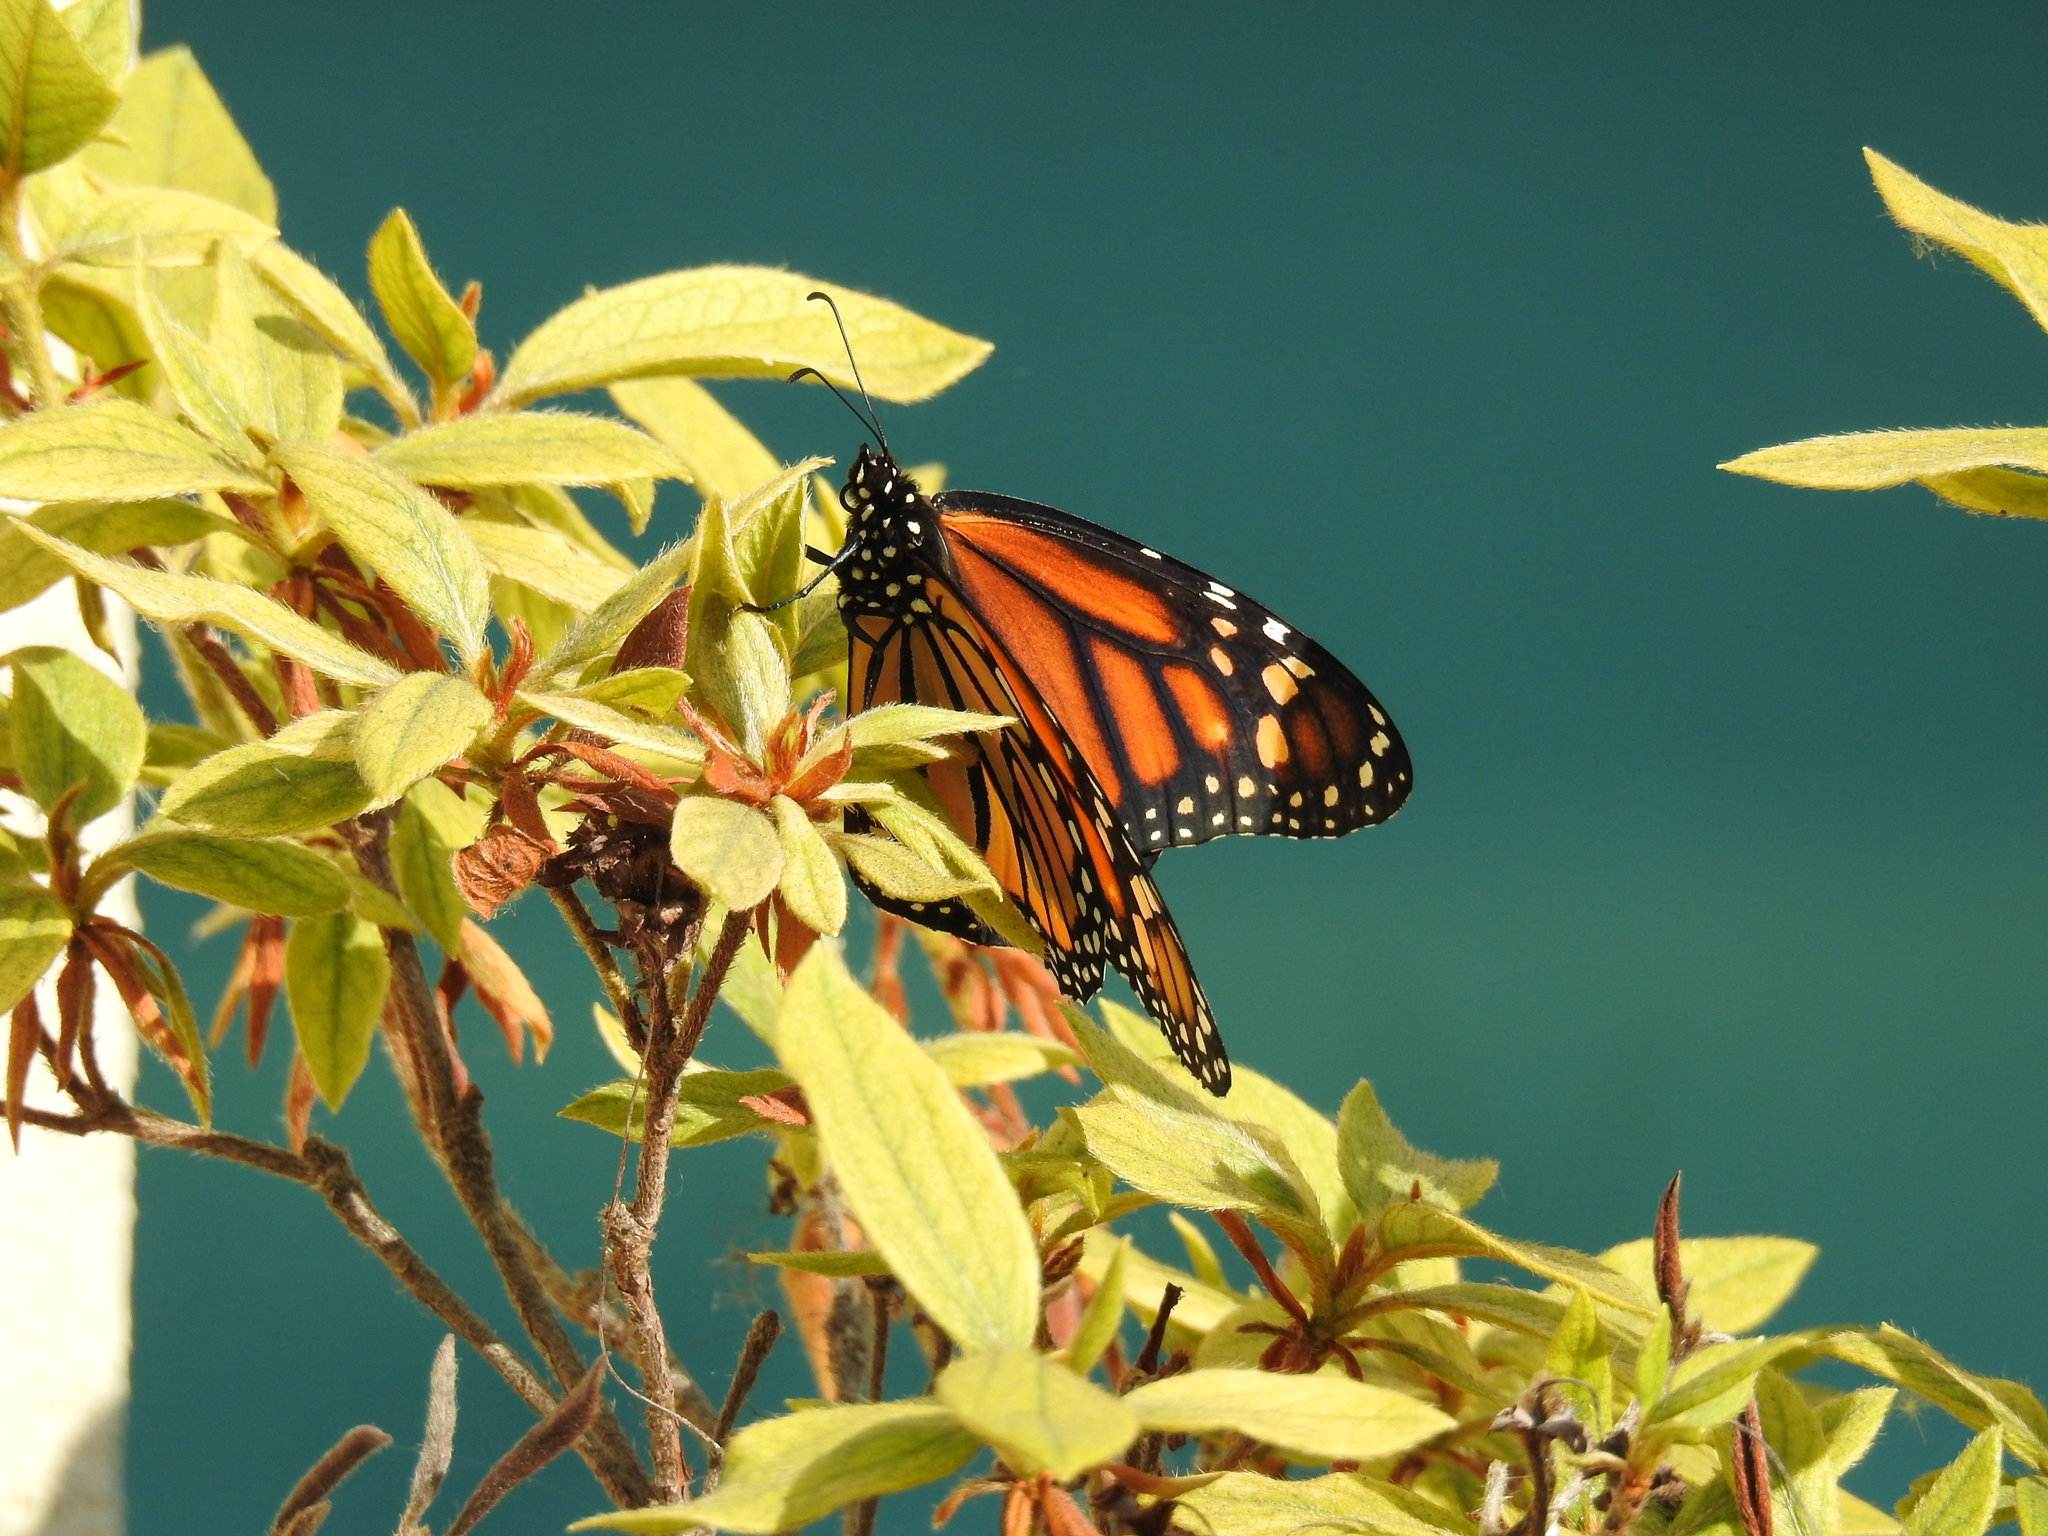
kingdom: Animalia
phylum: Arthropoda
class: Insecta
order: Lepidoptera
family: Nymphalidae
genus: Danaus
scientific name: Danaus plexippus
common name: Monarch
